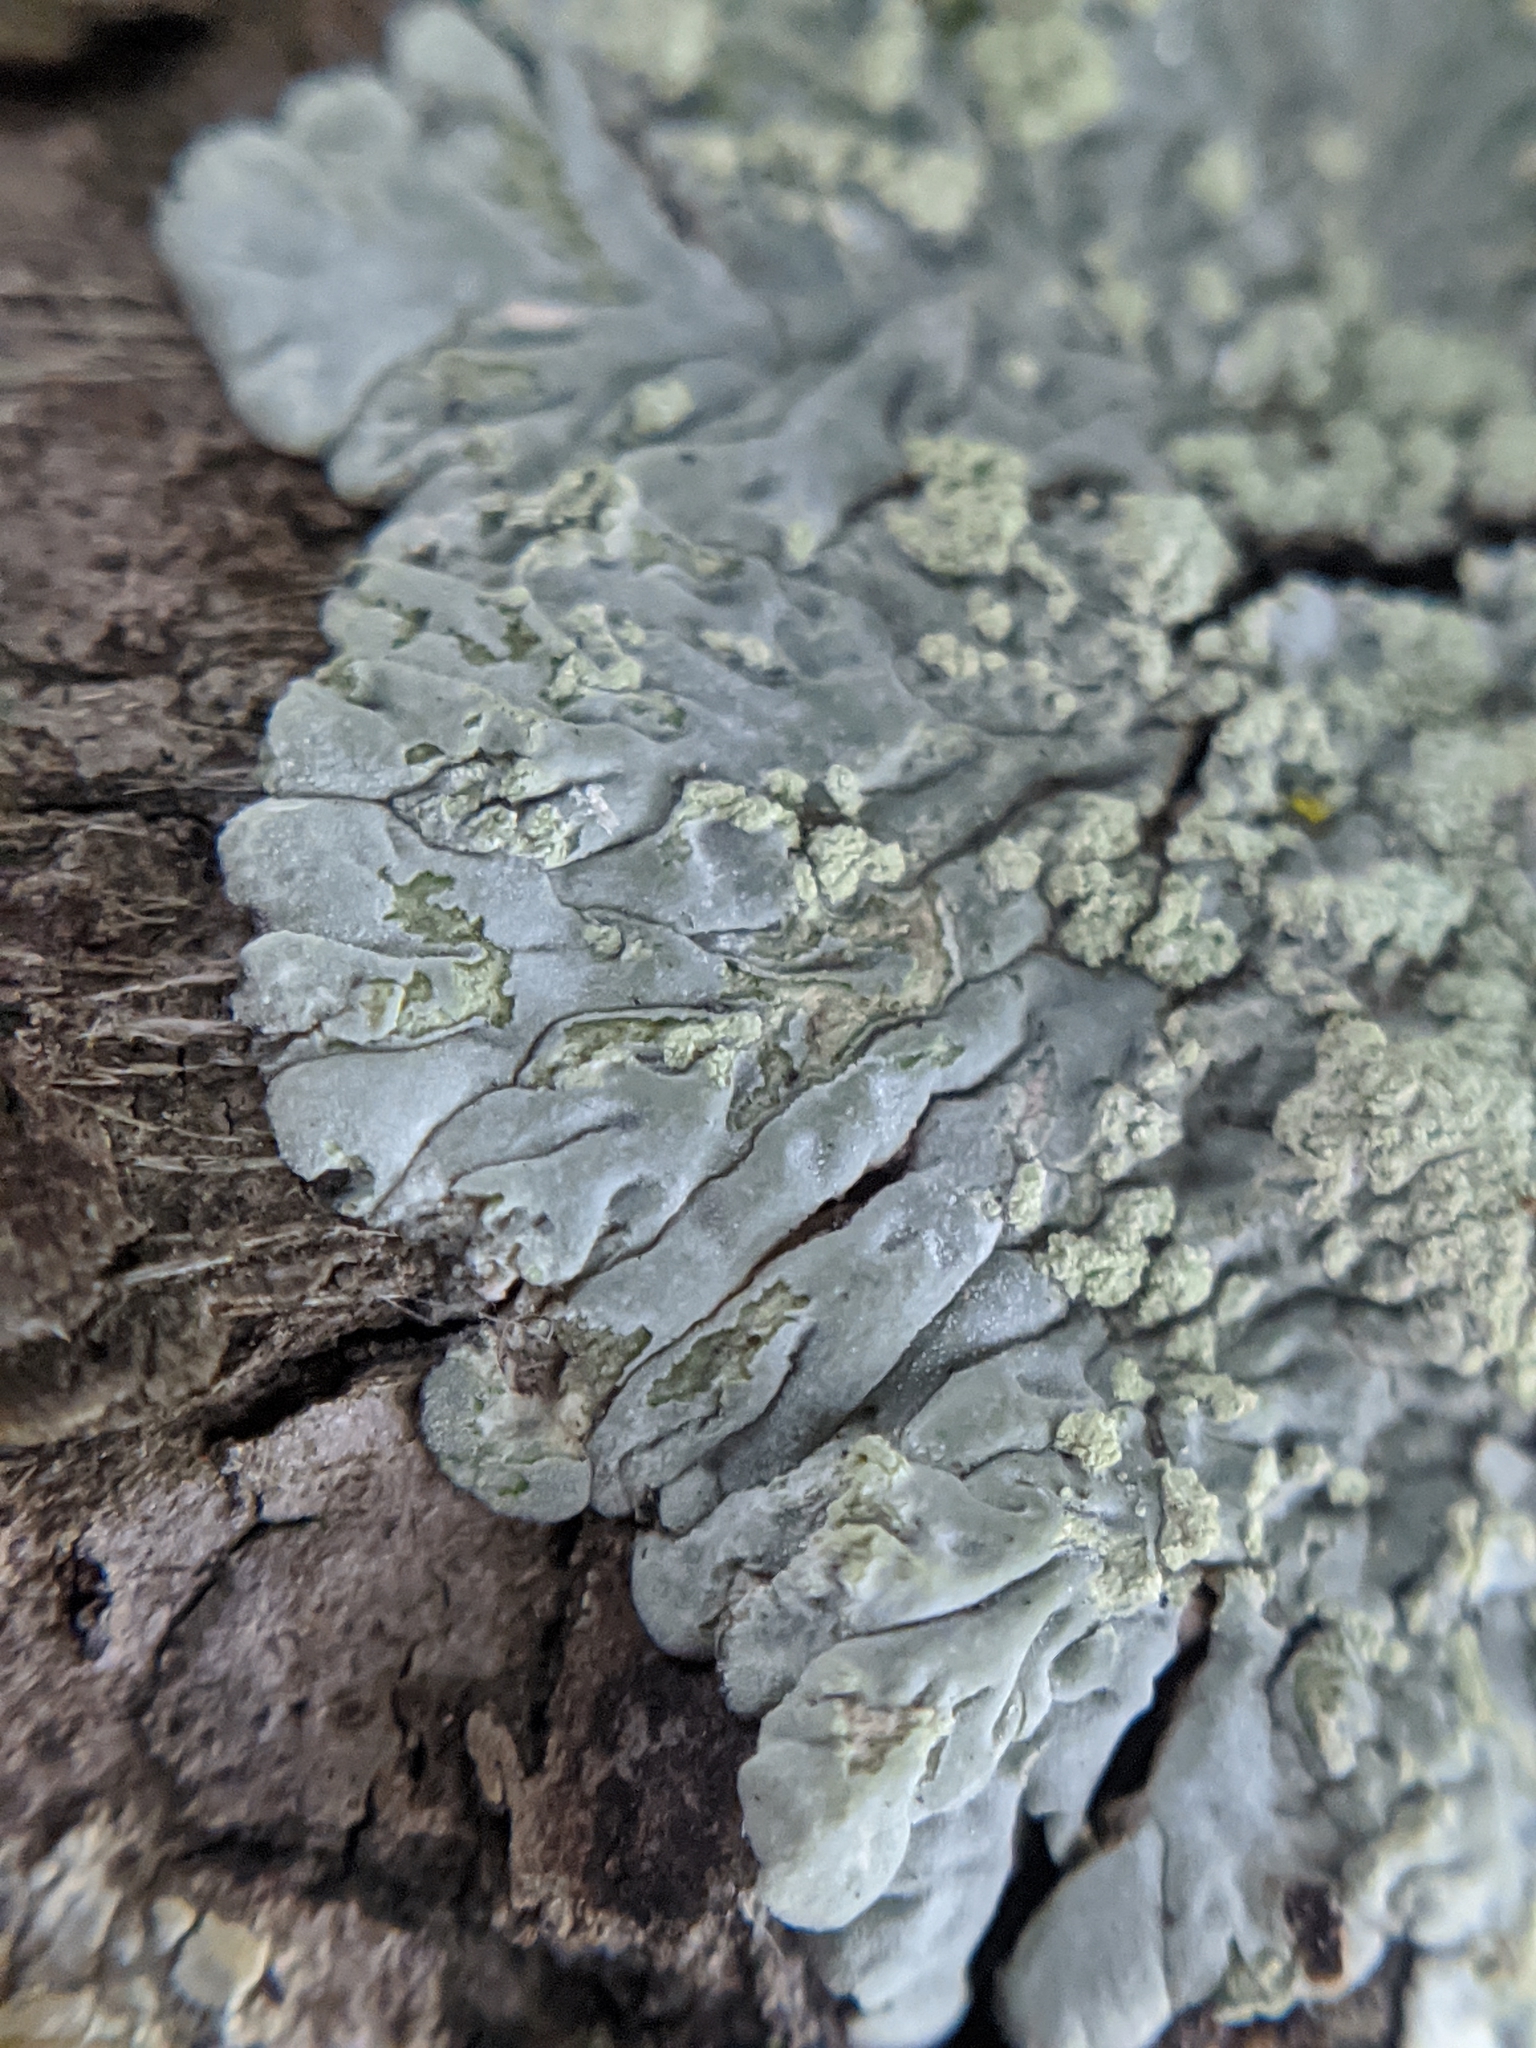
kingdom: Fungi
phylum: Ascomycota
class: Lecanoromycetes
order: Caliciales
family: Caliciaceae
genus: Diploicia
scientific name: Diploicia canescens
